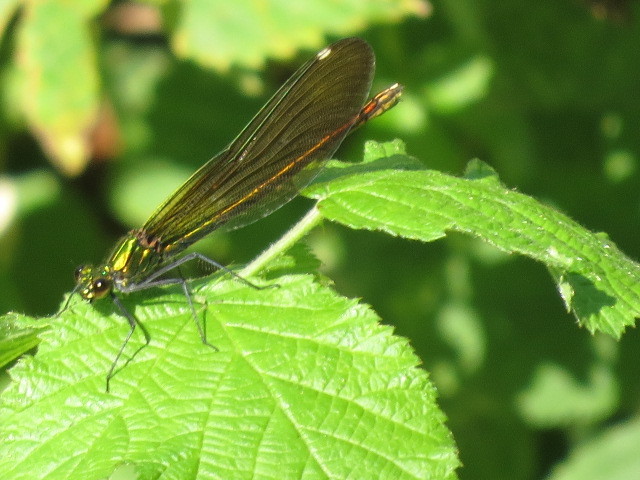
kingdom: Animalia
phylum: Arthropoda
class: Insecta
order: Odonata
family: Calopterygidae
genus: Calopteryx
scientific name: Calopteryx virgo
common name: Beautiful demoiselle
